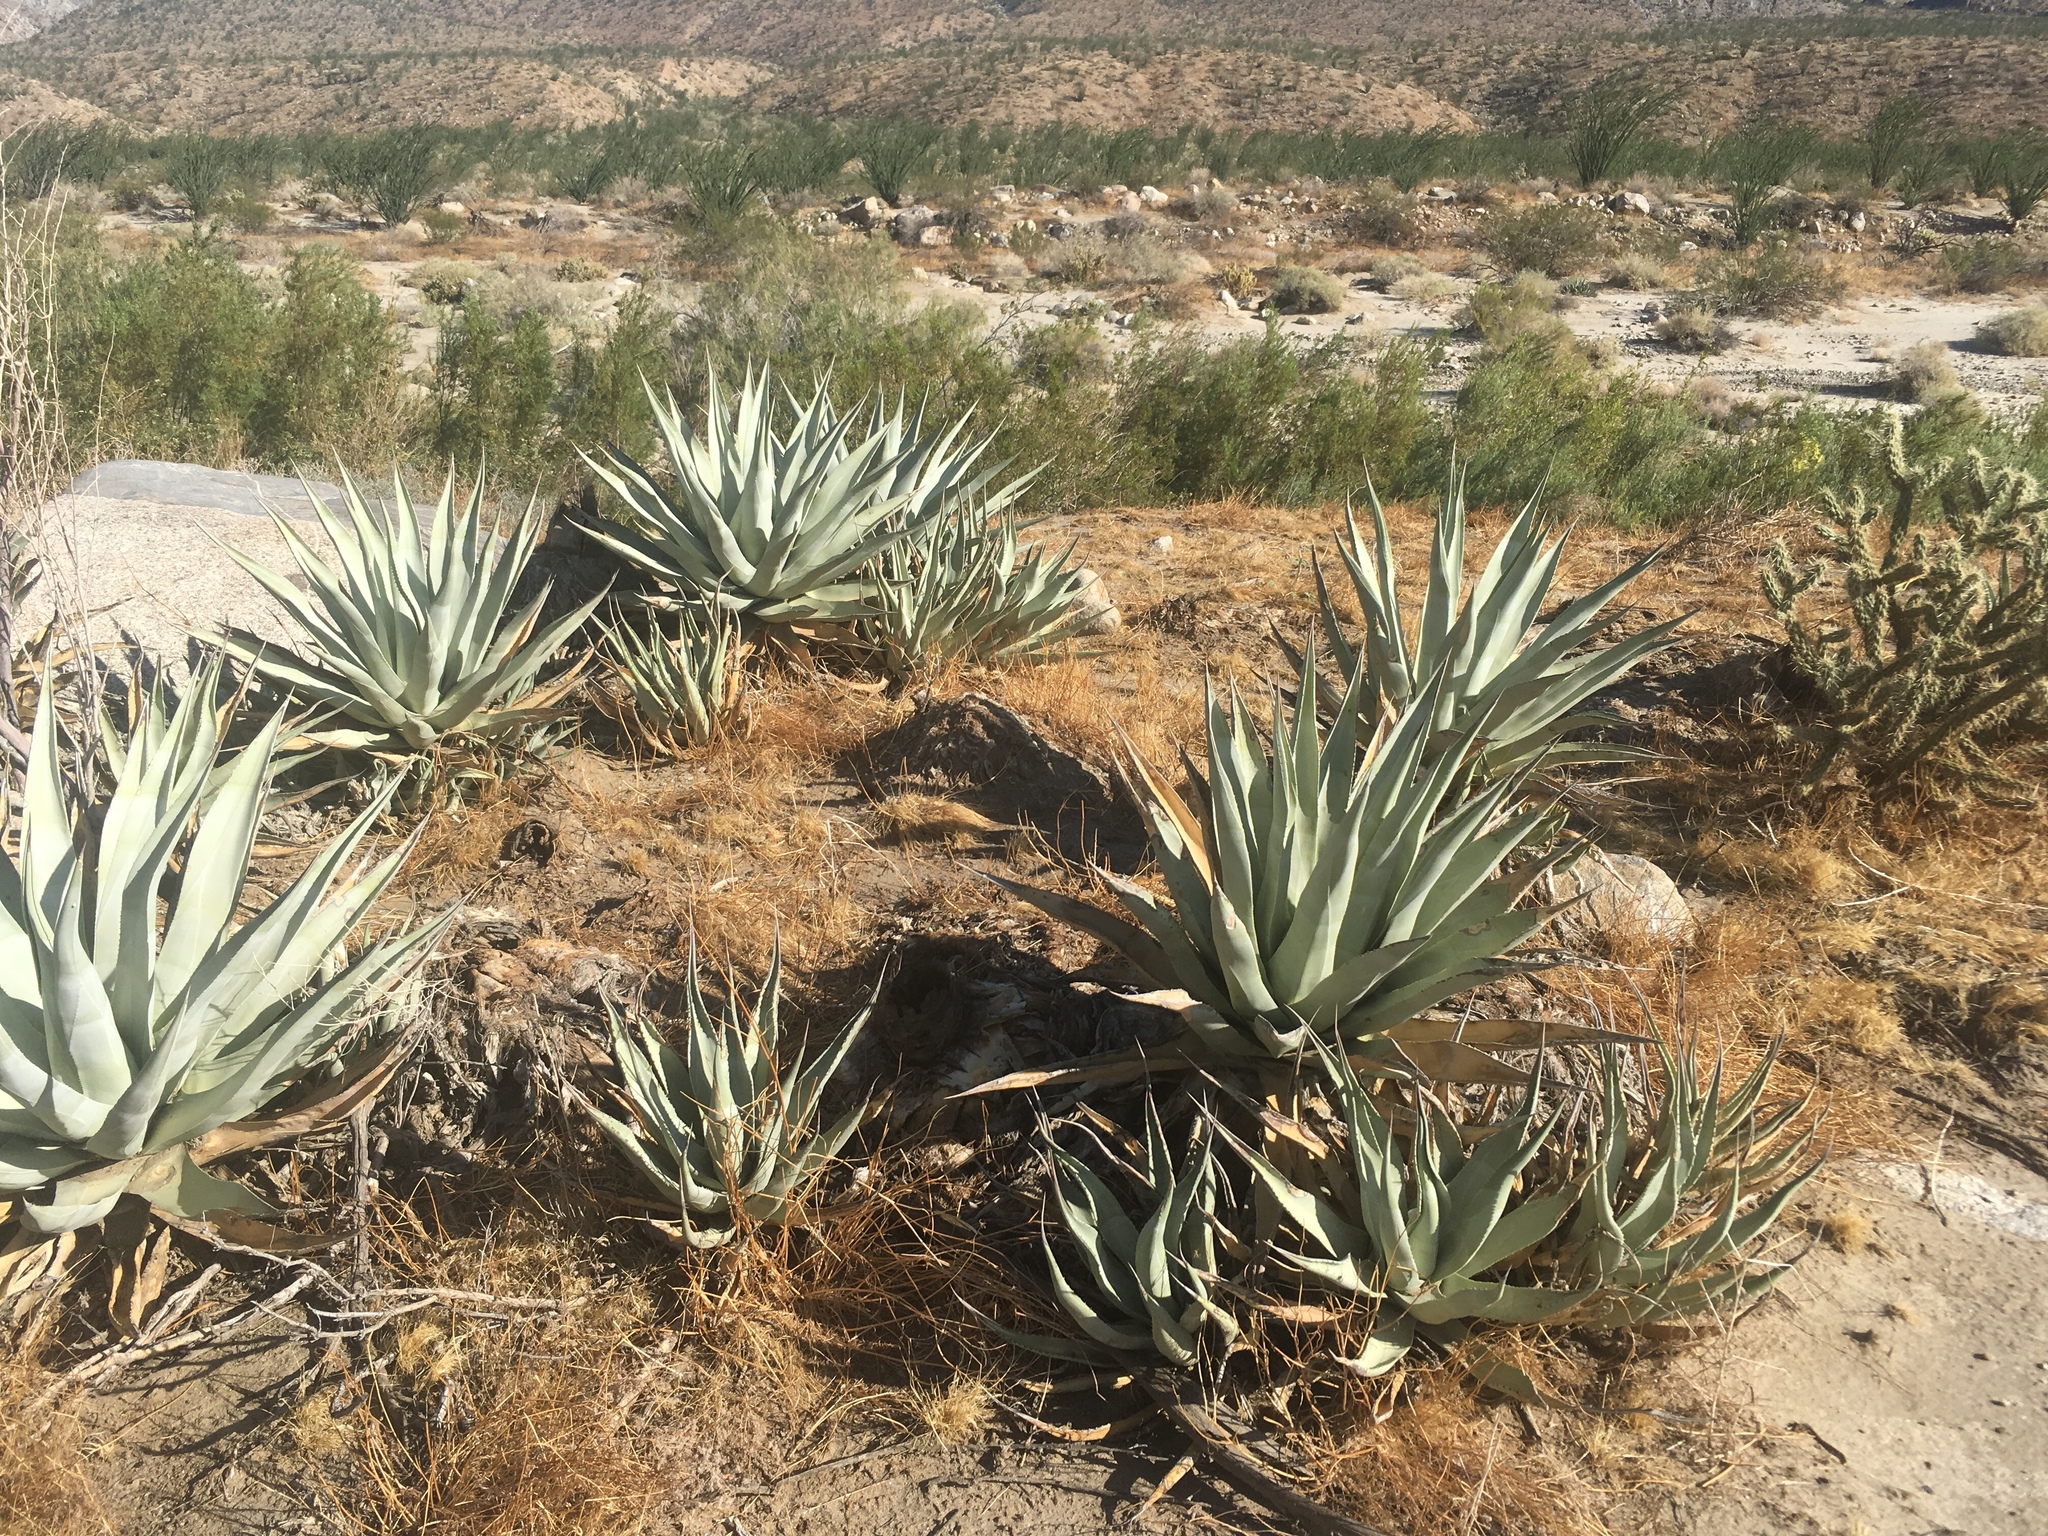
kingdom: Plantae
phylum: Tracheophyta
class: Liliopsida
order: Asparagales
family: Asparagaceae
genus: Agave
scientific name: Agave deserti
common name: Desert agave
